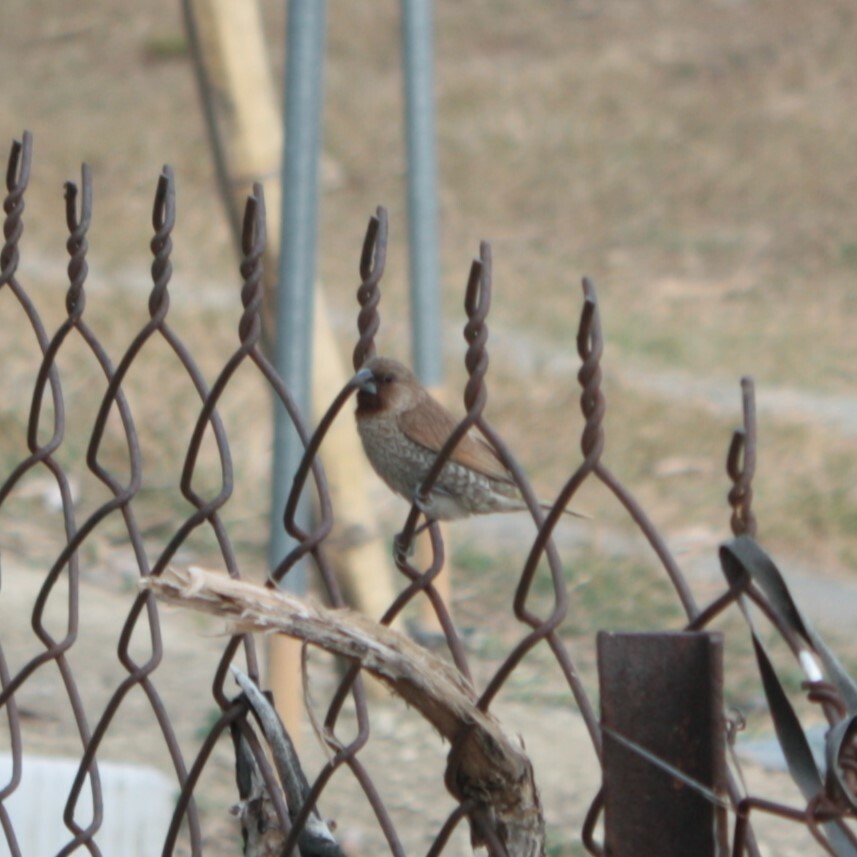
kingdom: Animalia
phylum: Chordata
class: Aves
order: Passeriformes
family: Estrildidae
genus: Lonchura
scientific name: Lonchura punctulata
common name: Scaly-breasted munia
